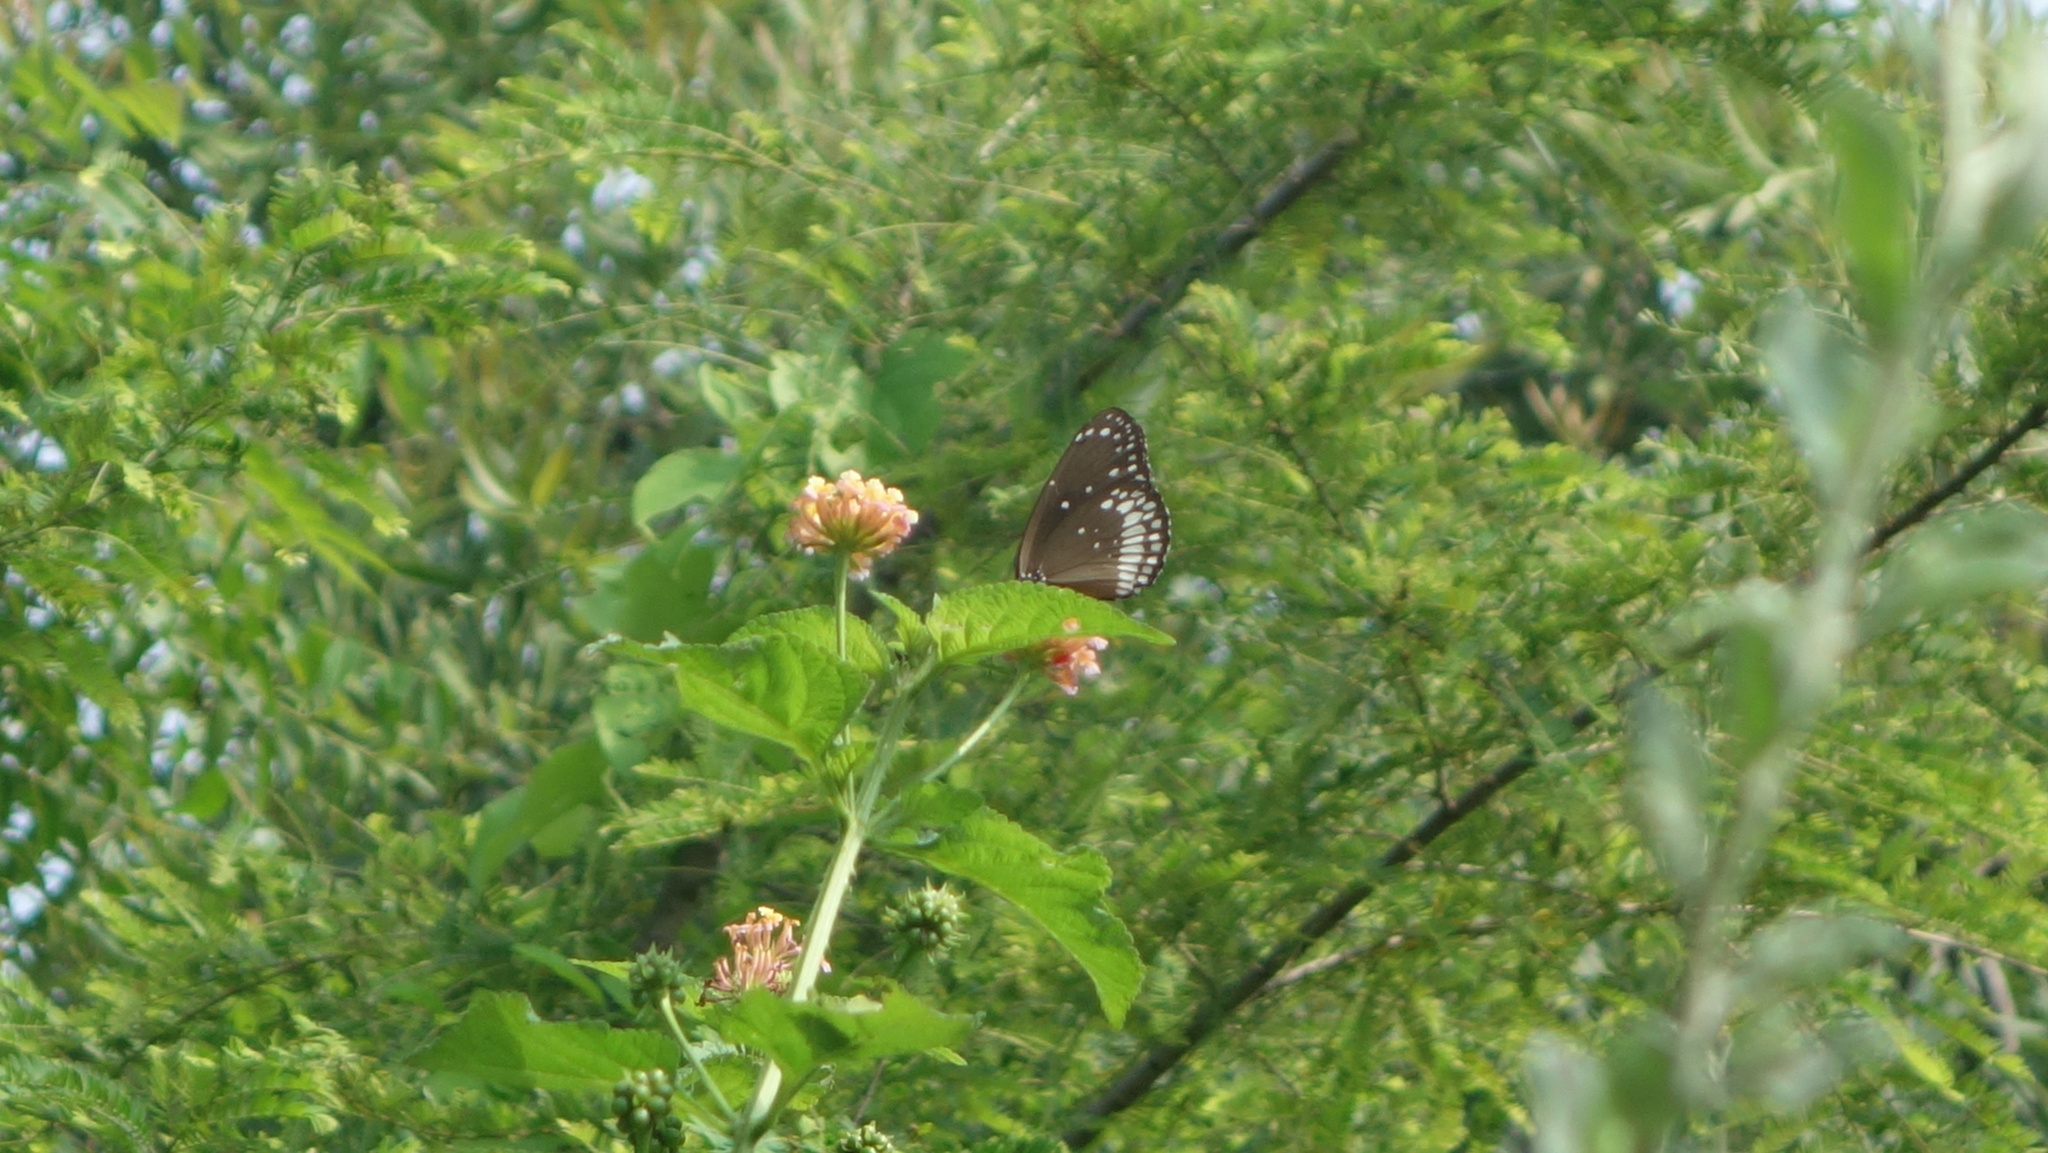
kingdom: Animalia
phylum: Arthropoda
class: Insecta
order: Lepidoptera
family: Nymphalidae
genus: Euploea
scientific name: Euploea core
